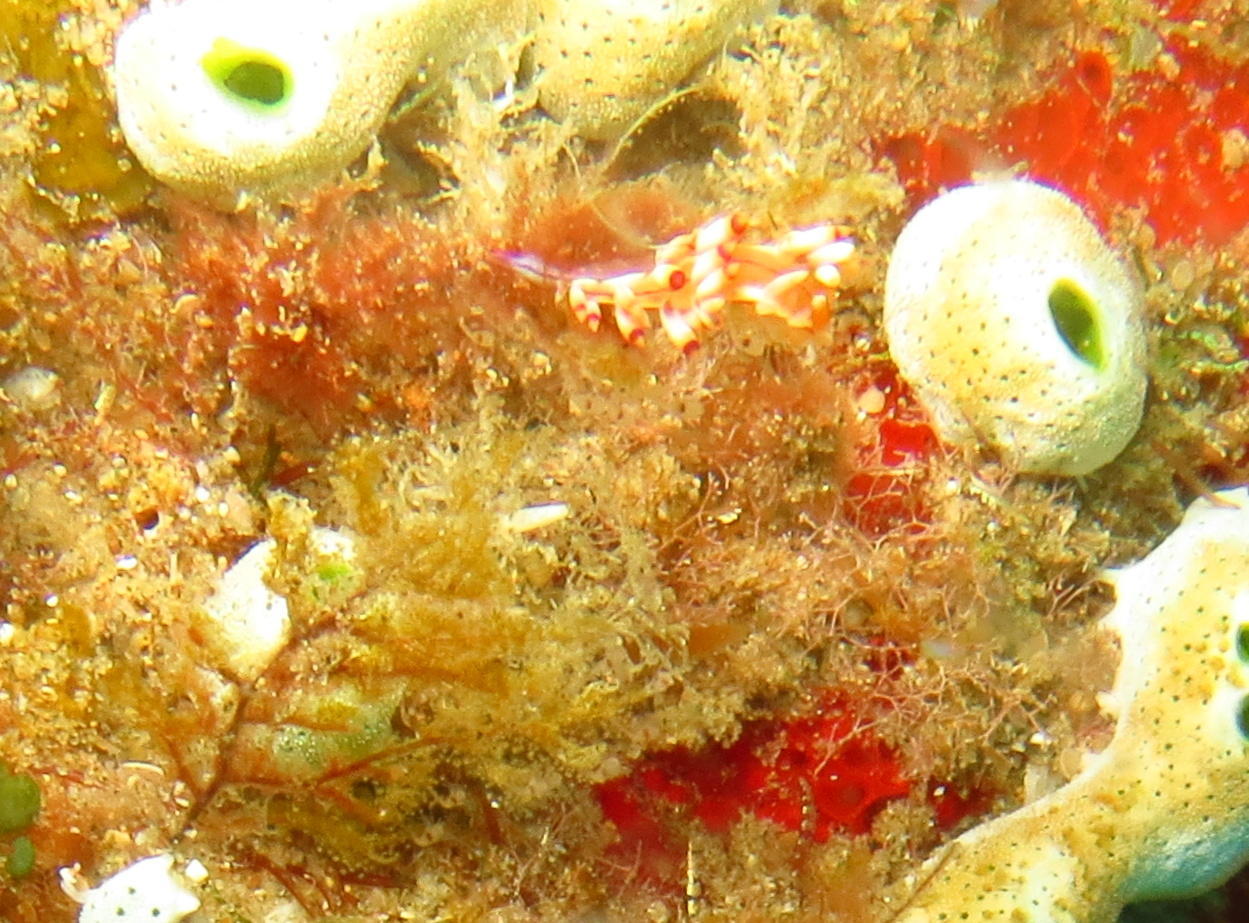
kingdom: Animalia
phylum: Mollusca
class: Gastropoda
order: Nudibranchia
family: Flabellinidae
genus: Coryphellina
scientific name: Coryphellina rubrolineata
